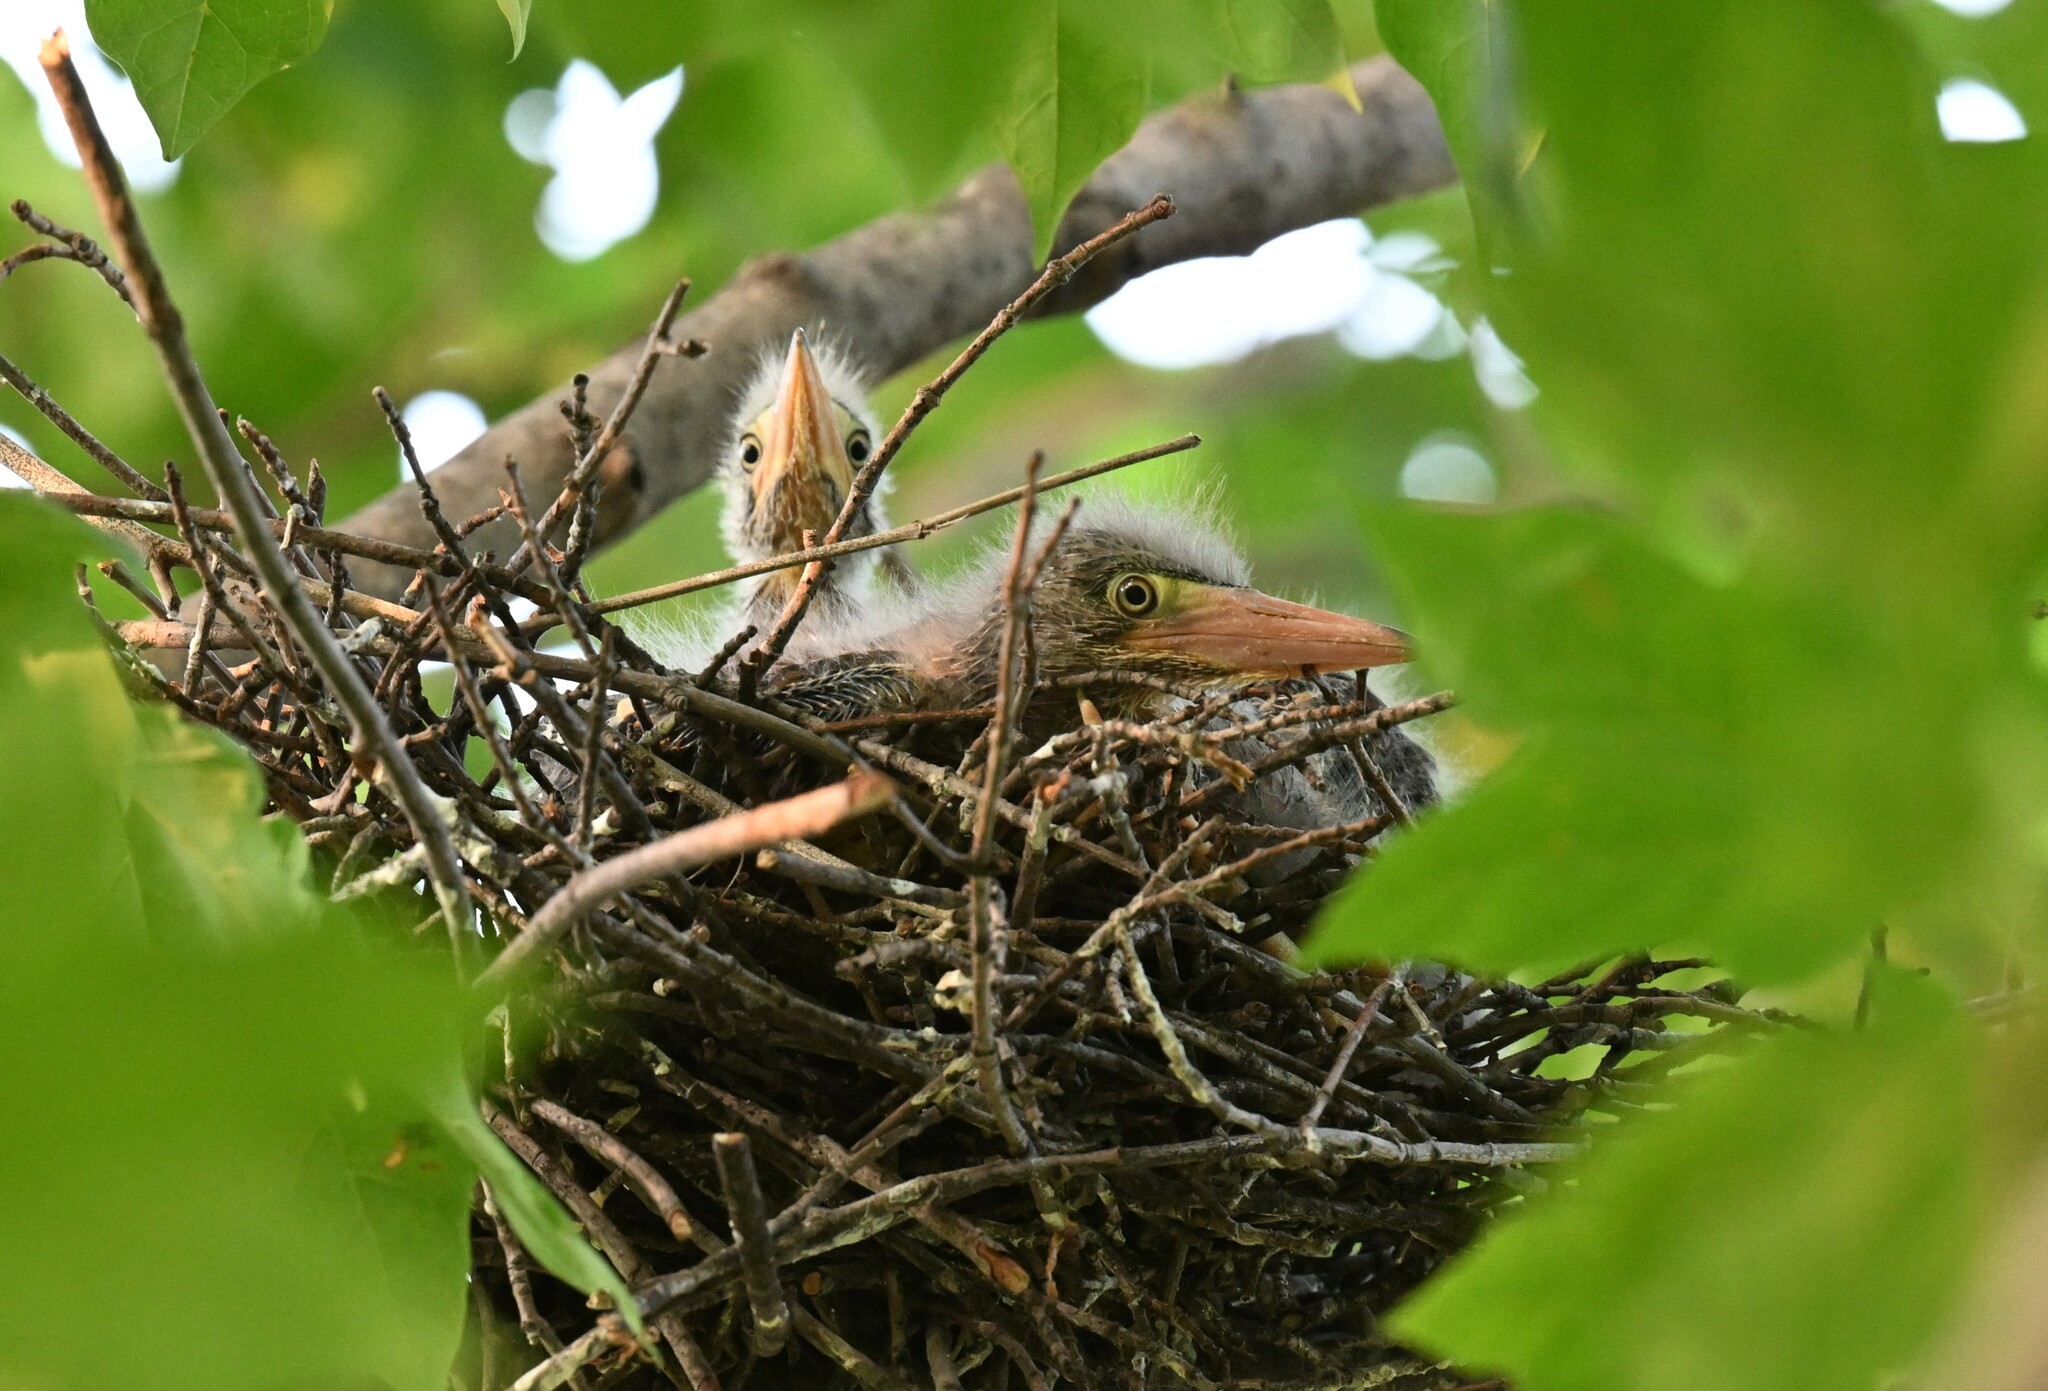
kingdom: Animalia
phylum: Chordata
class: Aves
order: Pelecaniformes
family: Ardeidae
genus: Butorides
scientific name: Butorides virescens
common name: Green heron
